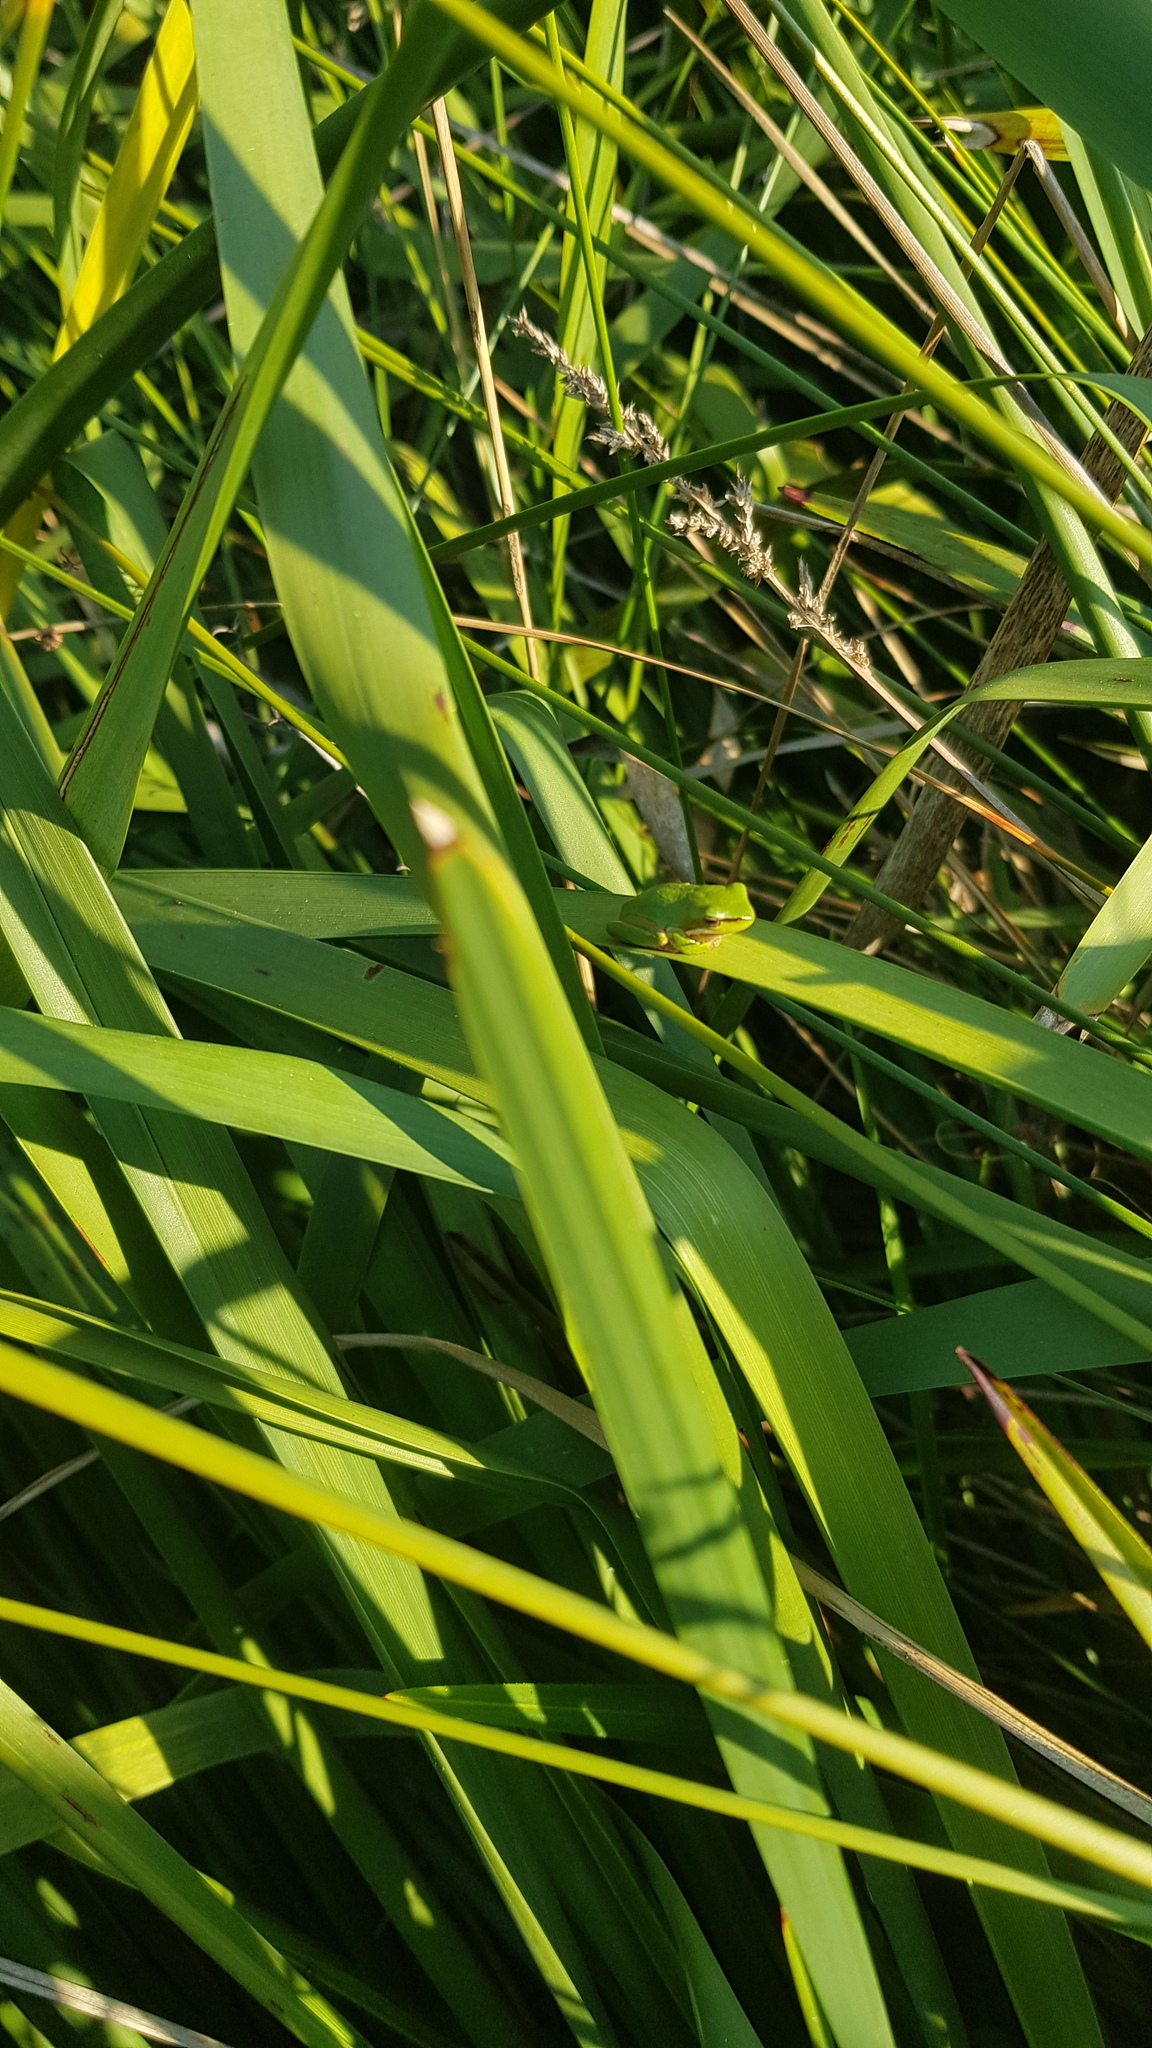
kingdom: Animalia
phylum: Chordata
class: Amphibia
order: Anura
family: Pelodryadidae
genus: Litoria
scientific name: Litoria fallax
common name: Eastern dwarf treefrog
